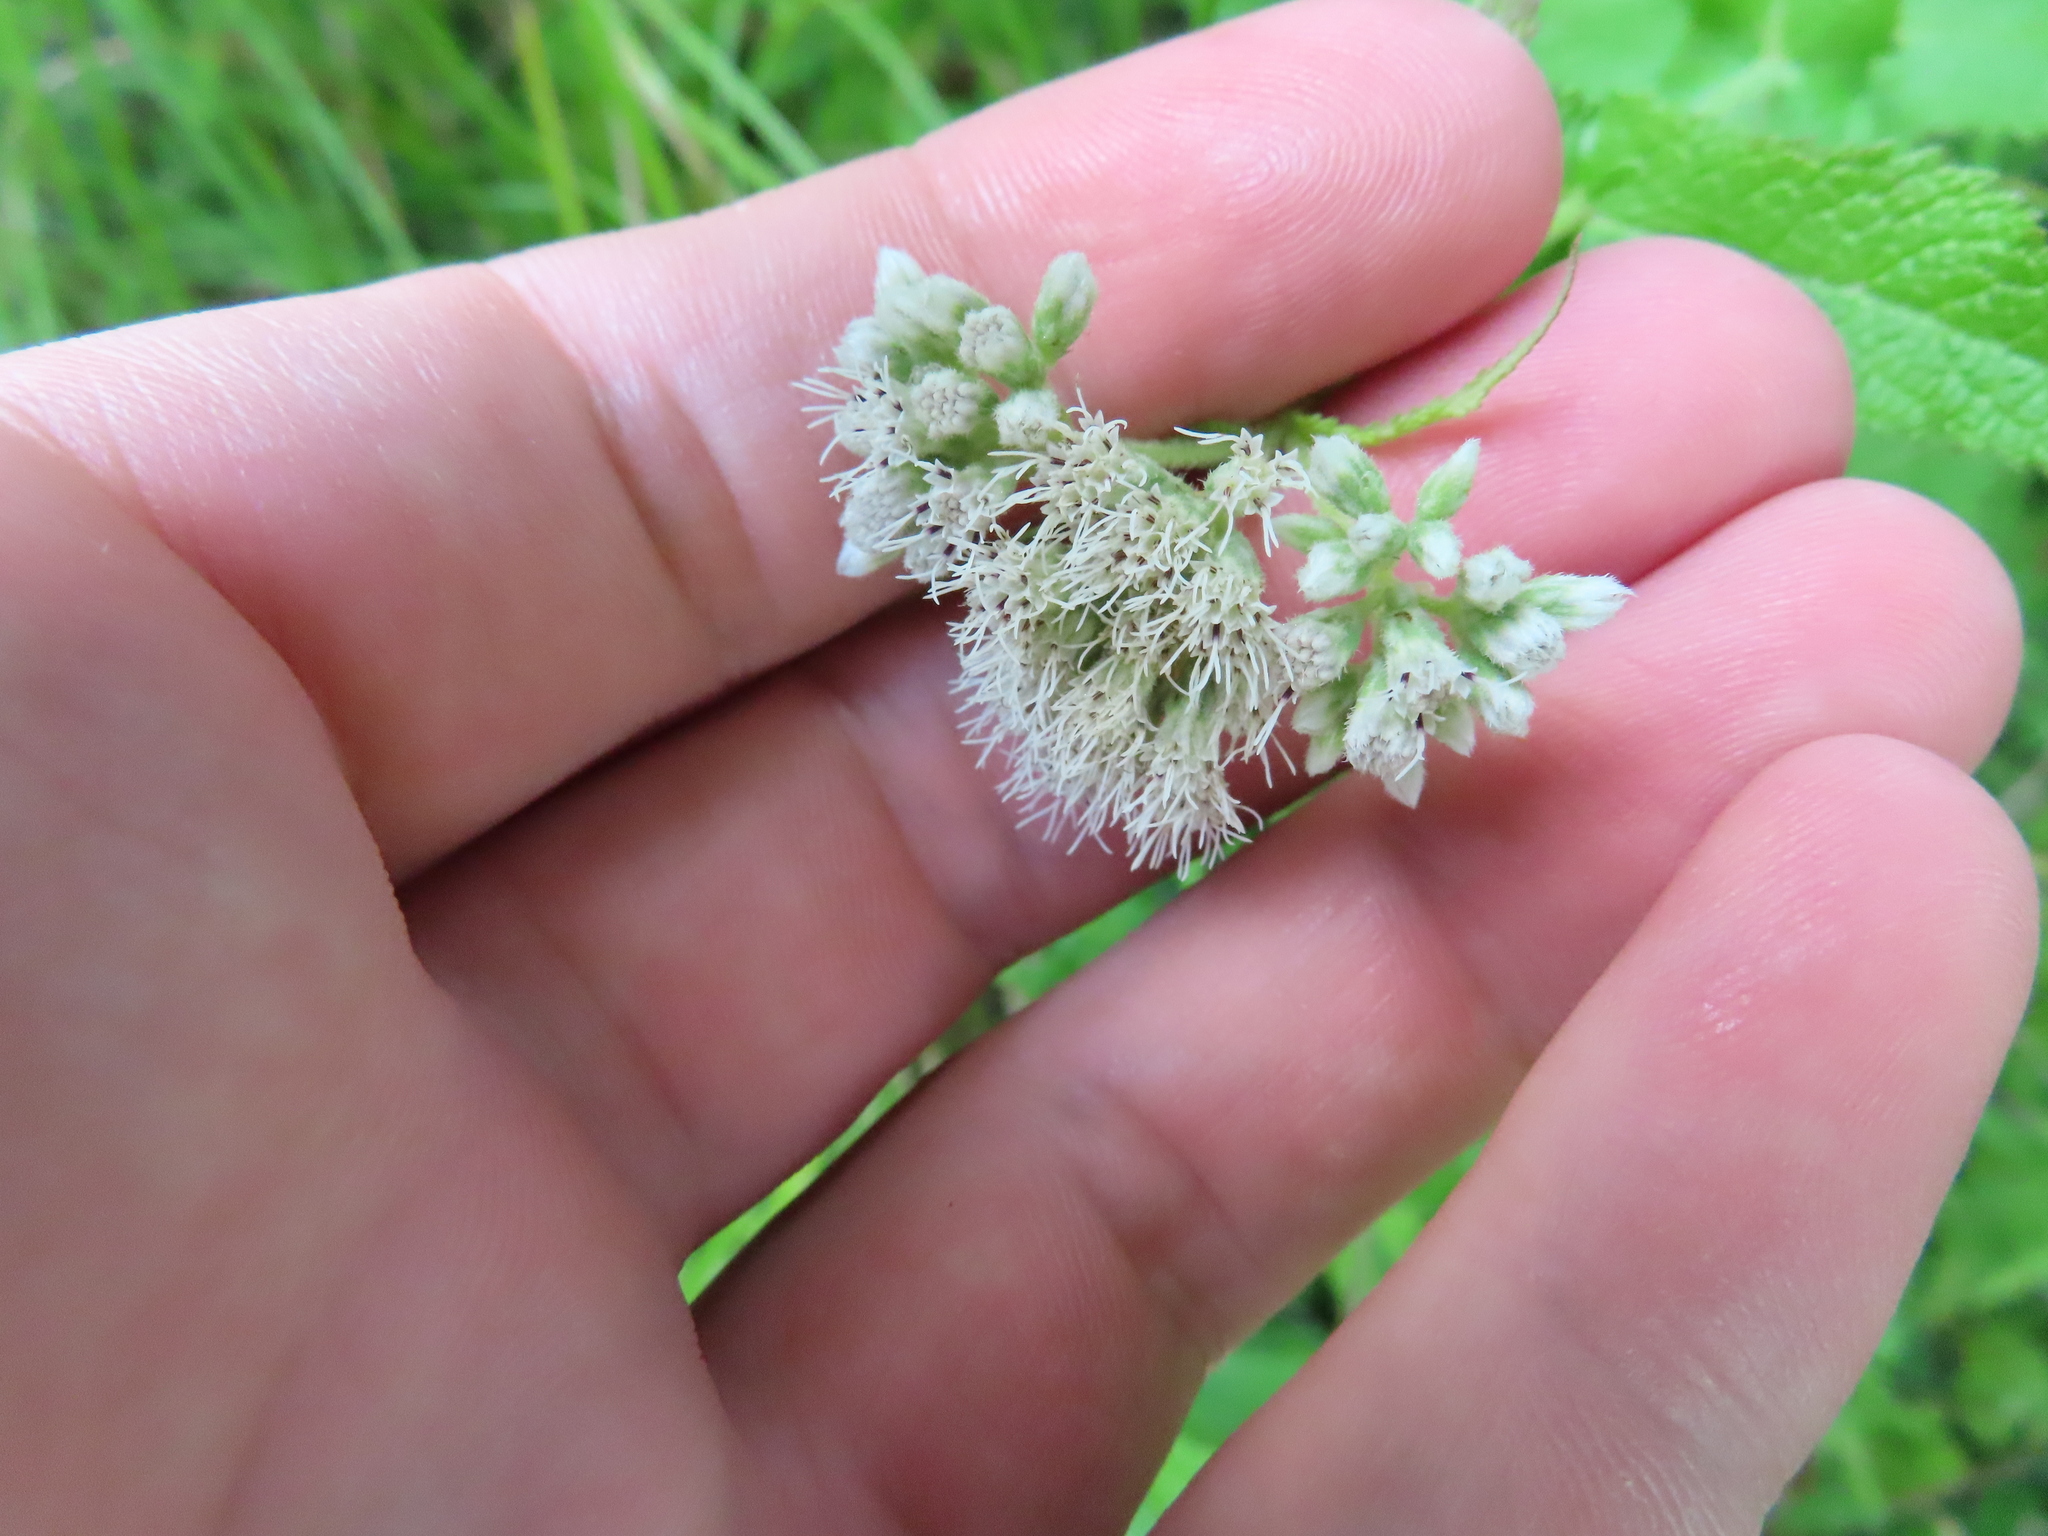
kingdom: Plantae
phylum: Tracheophyta
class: Magnoliopsida
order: Asterales
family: Asteraceae
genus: Eupatorium
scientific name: Eupatorium perfoliatum
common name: Boneset
